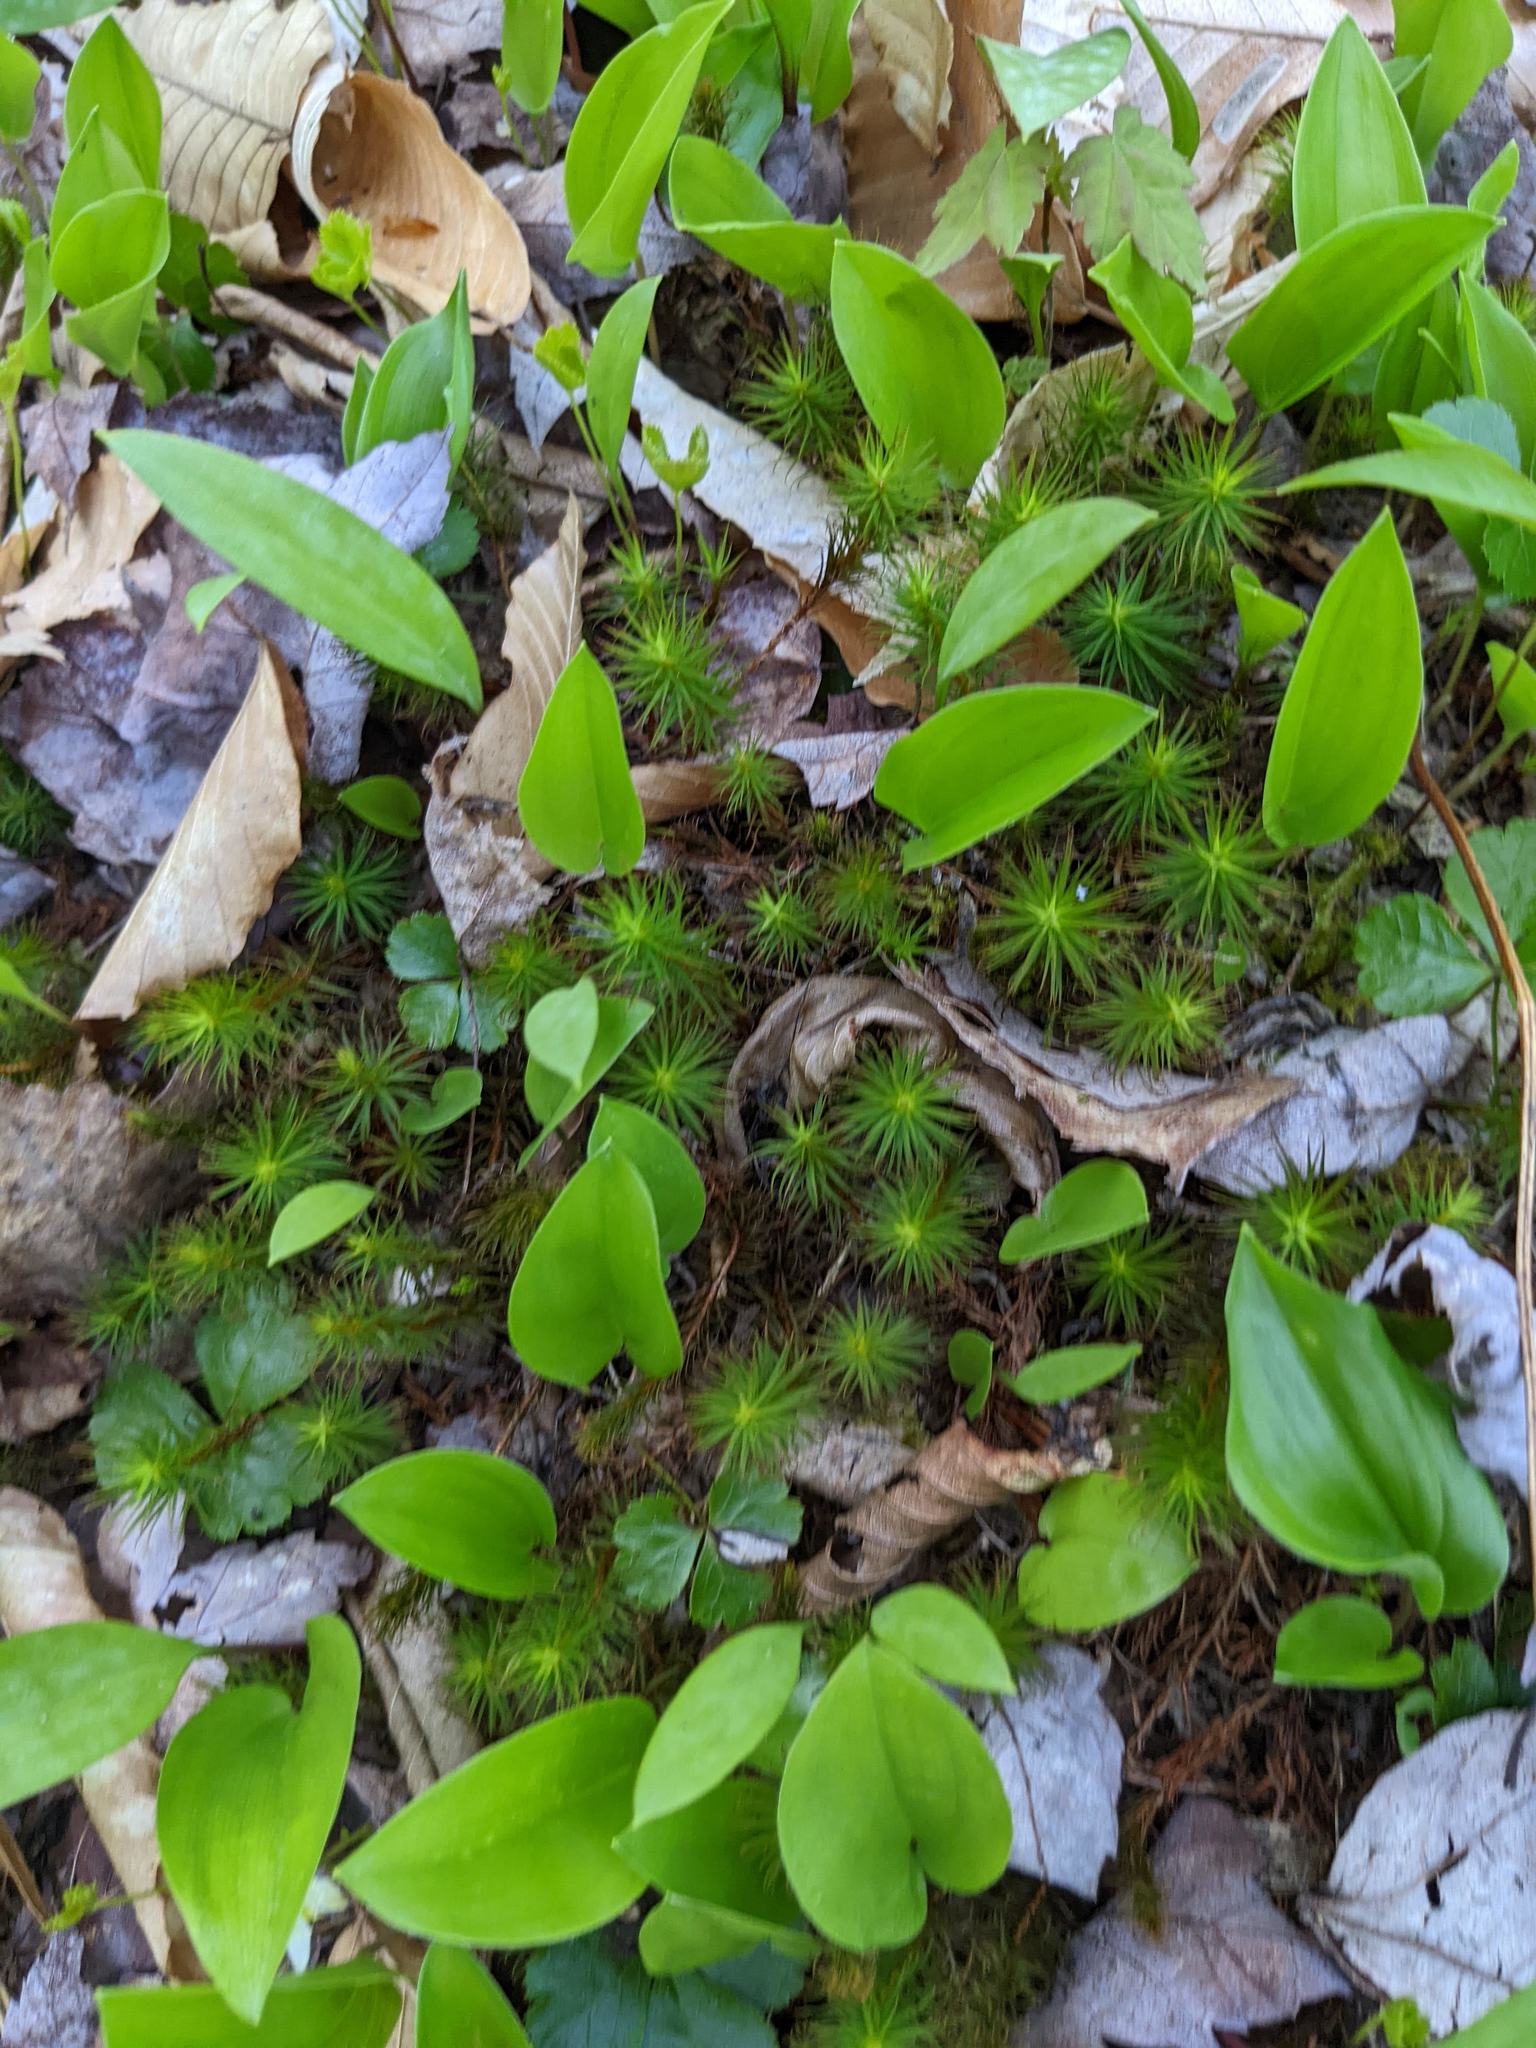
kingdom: Plantae
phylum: Tracheophyta
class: Liliopsida
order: Asparagales
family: Asparagaceae
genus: Maianthemum
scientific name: Maianthemum canadense
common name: False lily-of-the-valley
